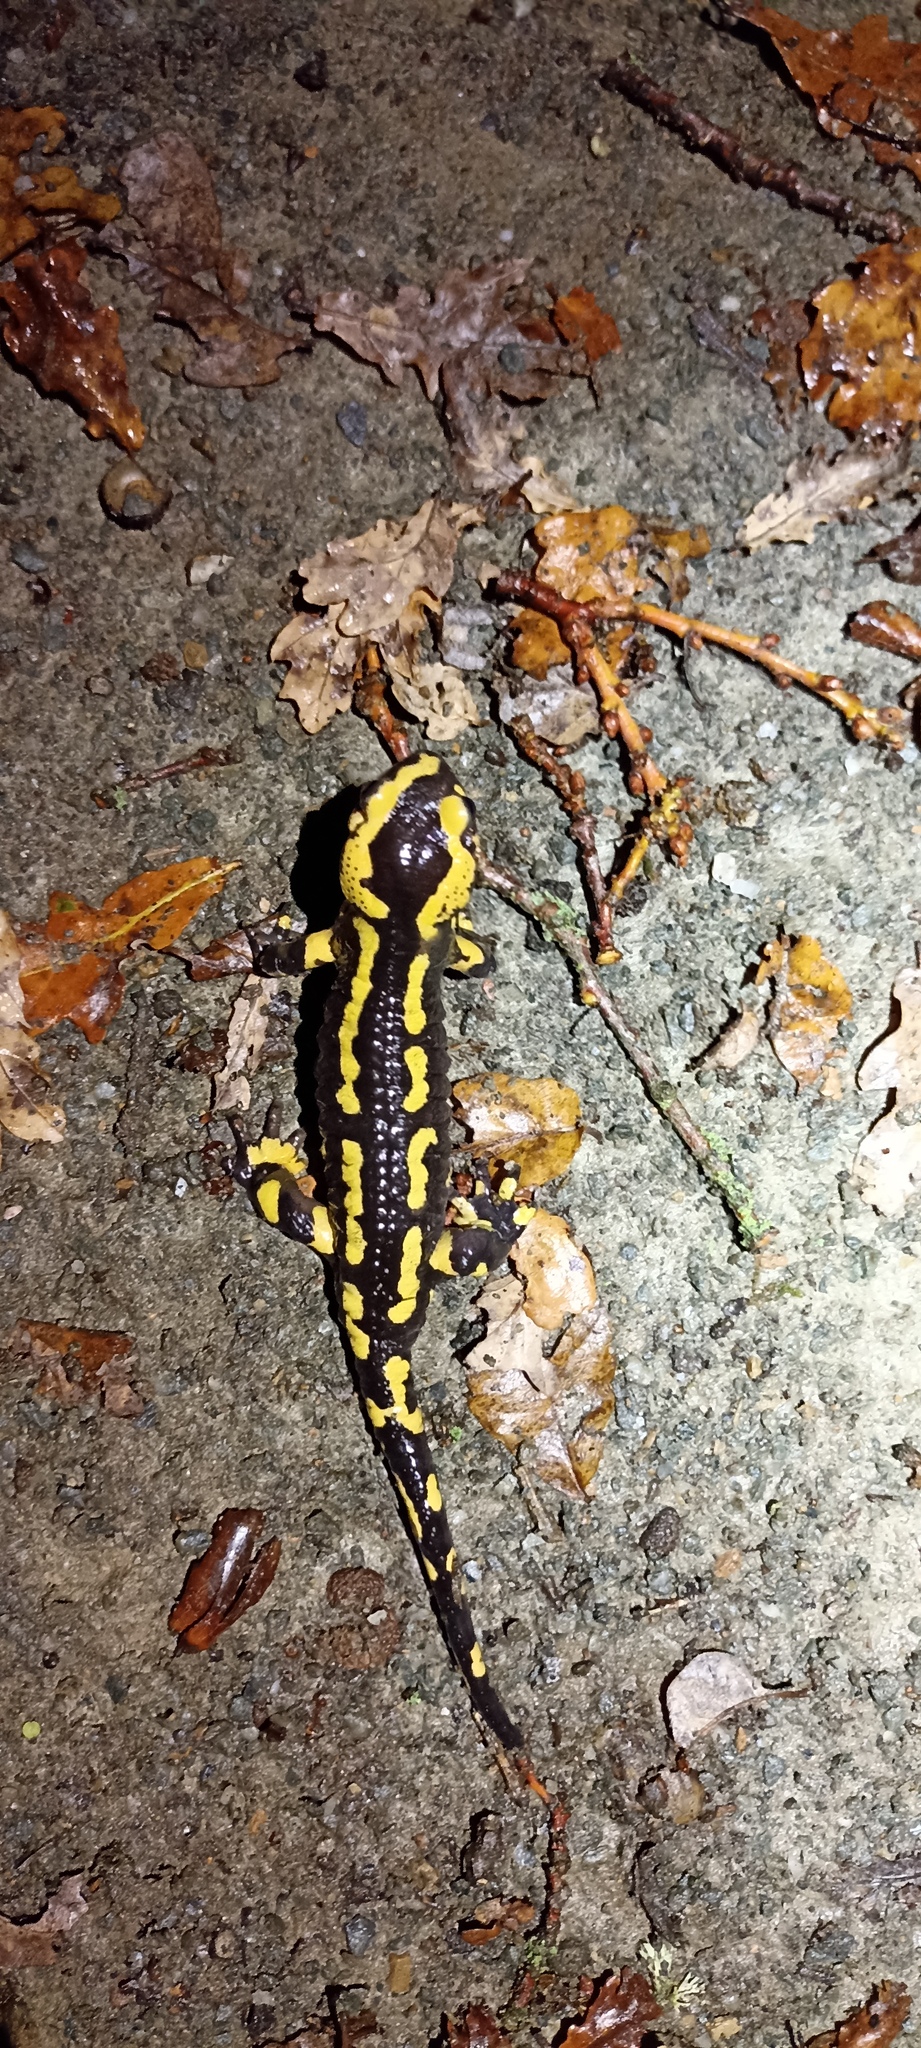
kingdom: Animalia
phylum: Chordata
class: Amphibia
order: Caudata
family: Salamandridae
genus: Salamandra
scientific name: Salamandra salamandra
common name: Fire salamander
